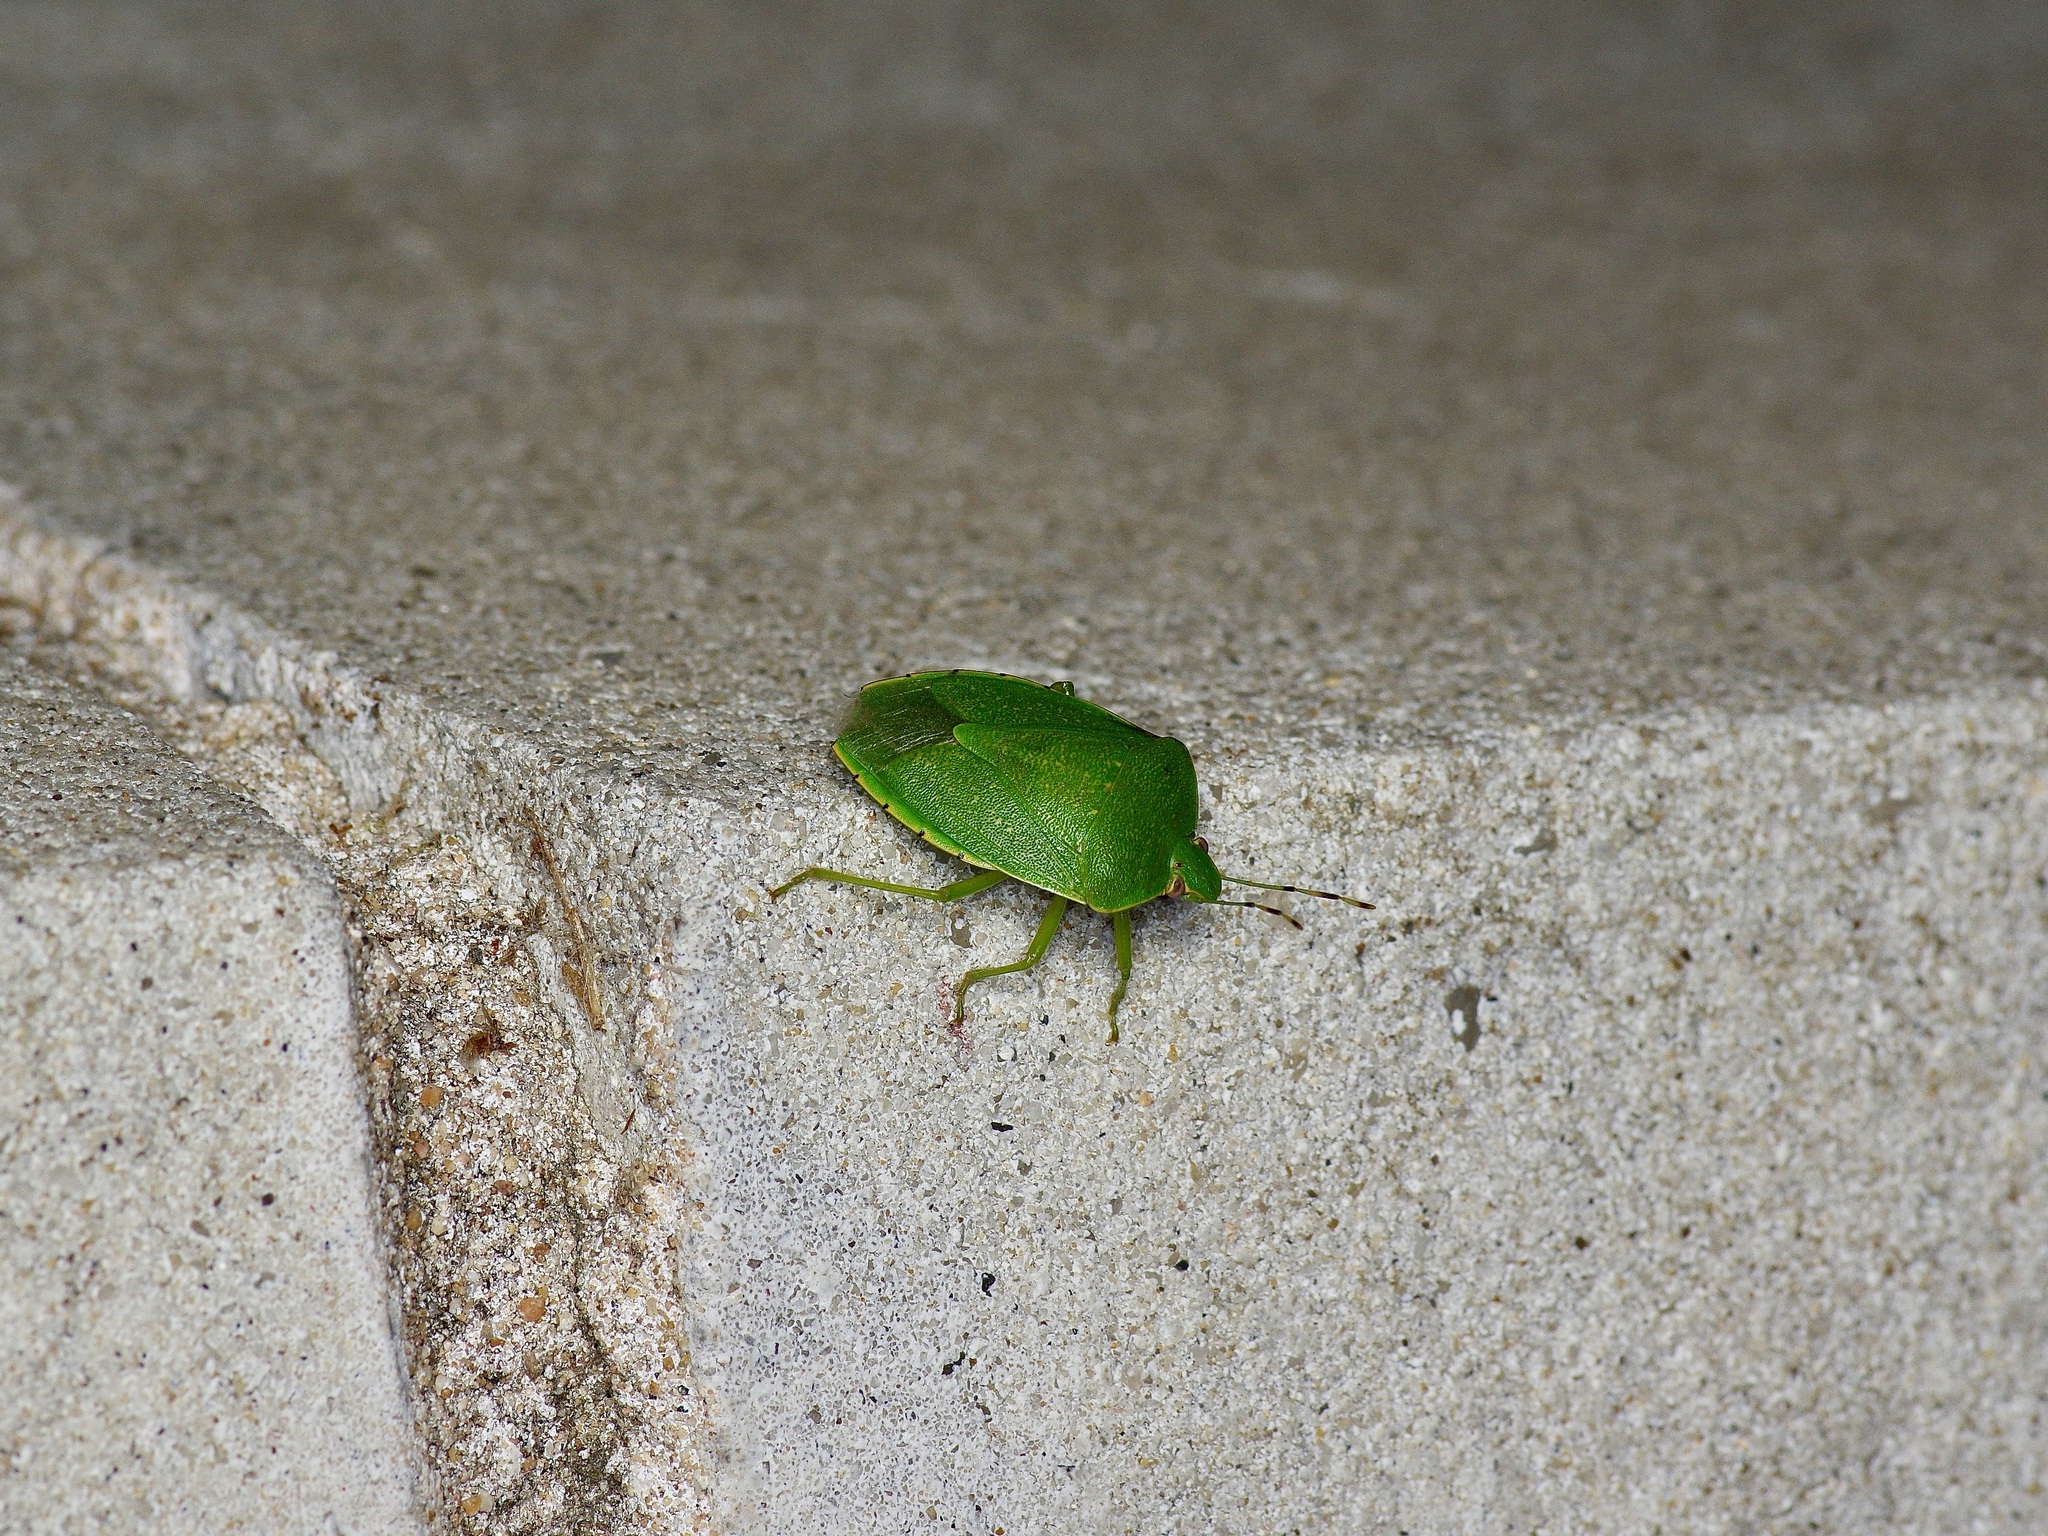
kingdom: Animalia
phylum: Arthropoda
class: Insecta
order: Hemiptera
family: Pentatomidae
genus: Chinavia
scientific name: Chinavia hilaris
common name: Green stink bug
